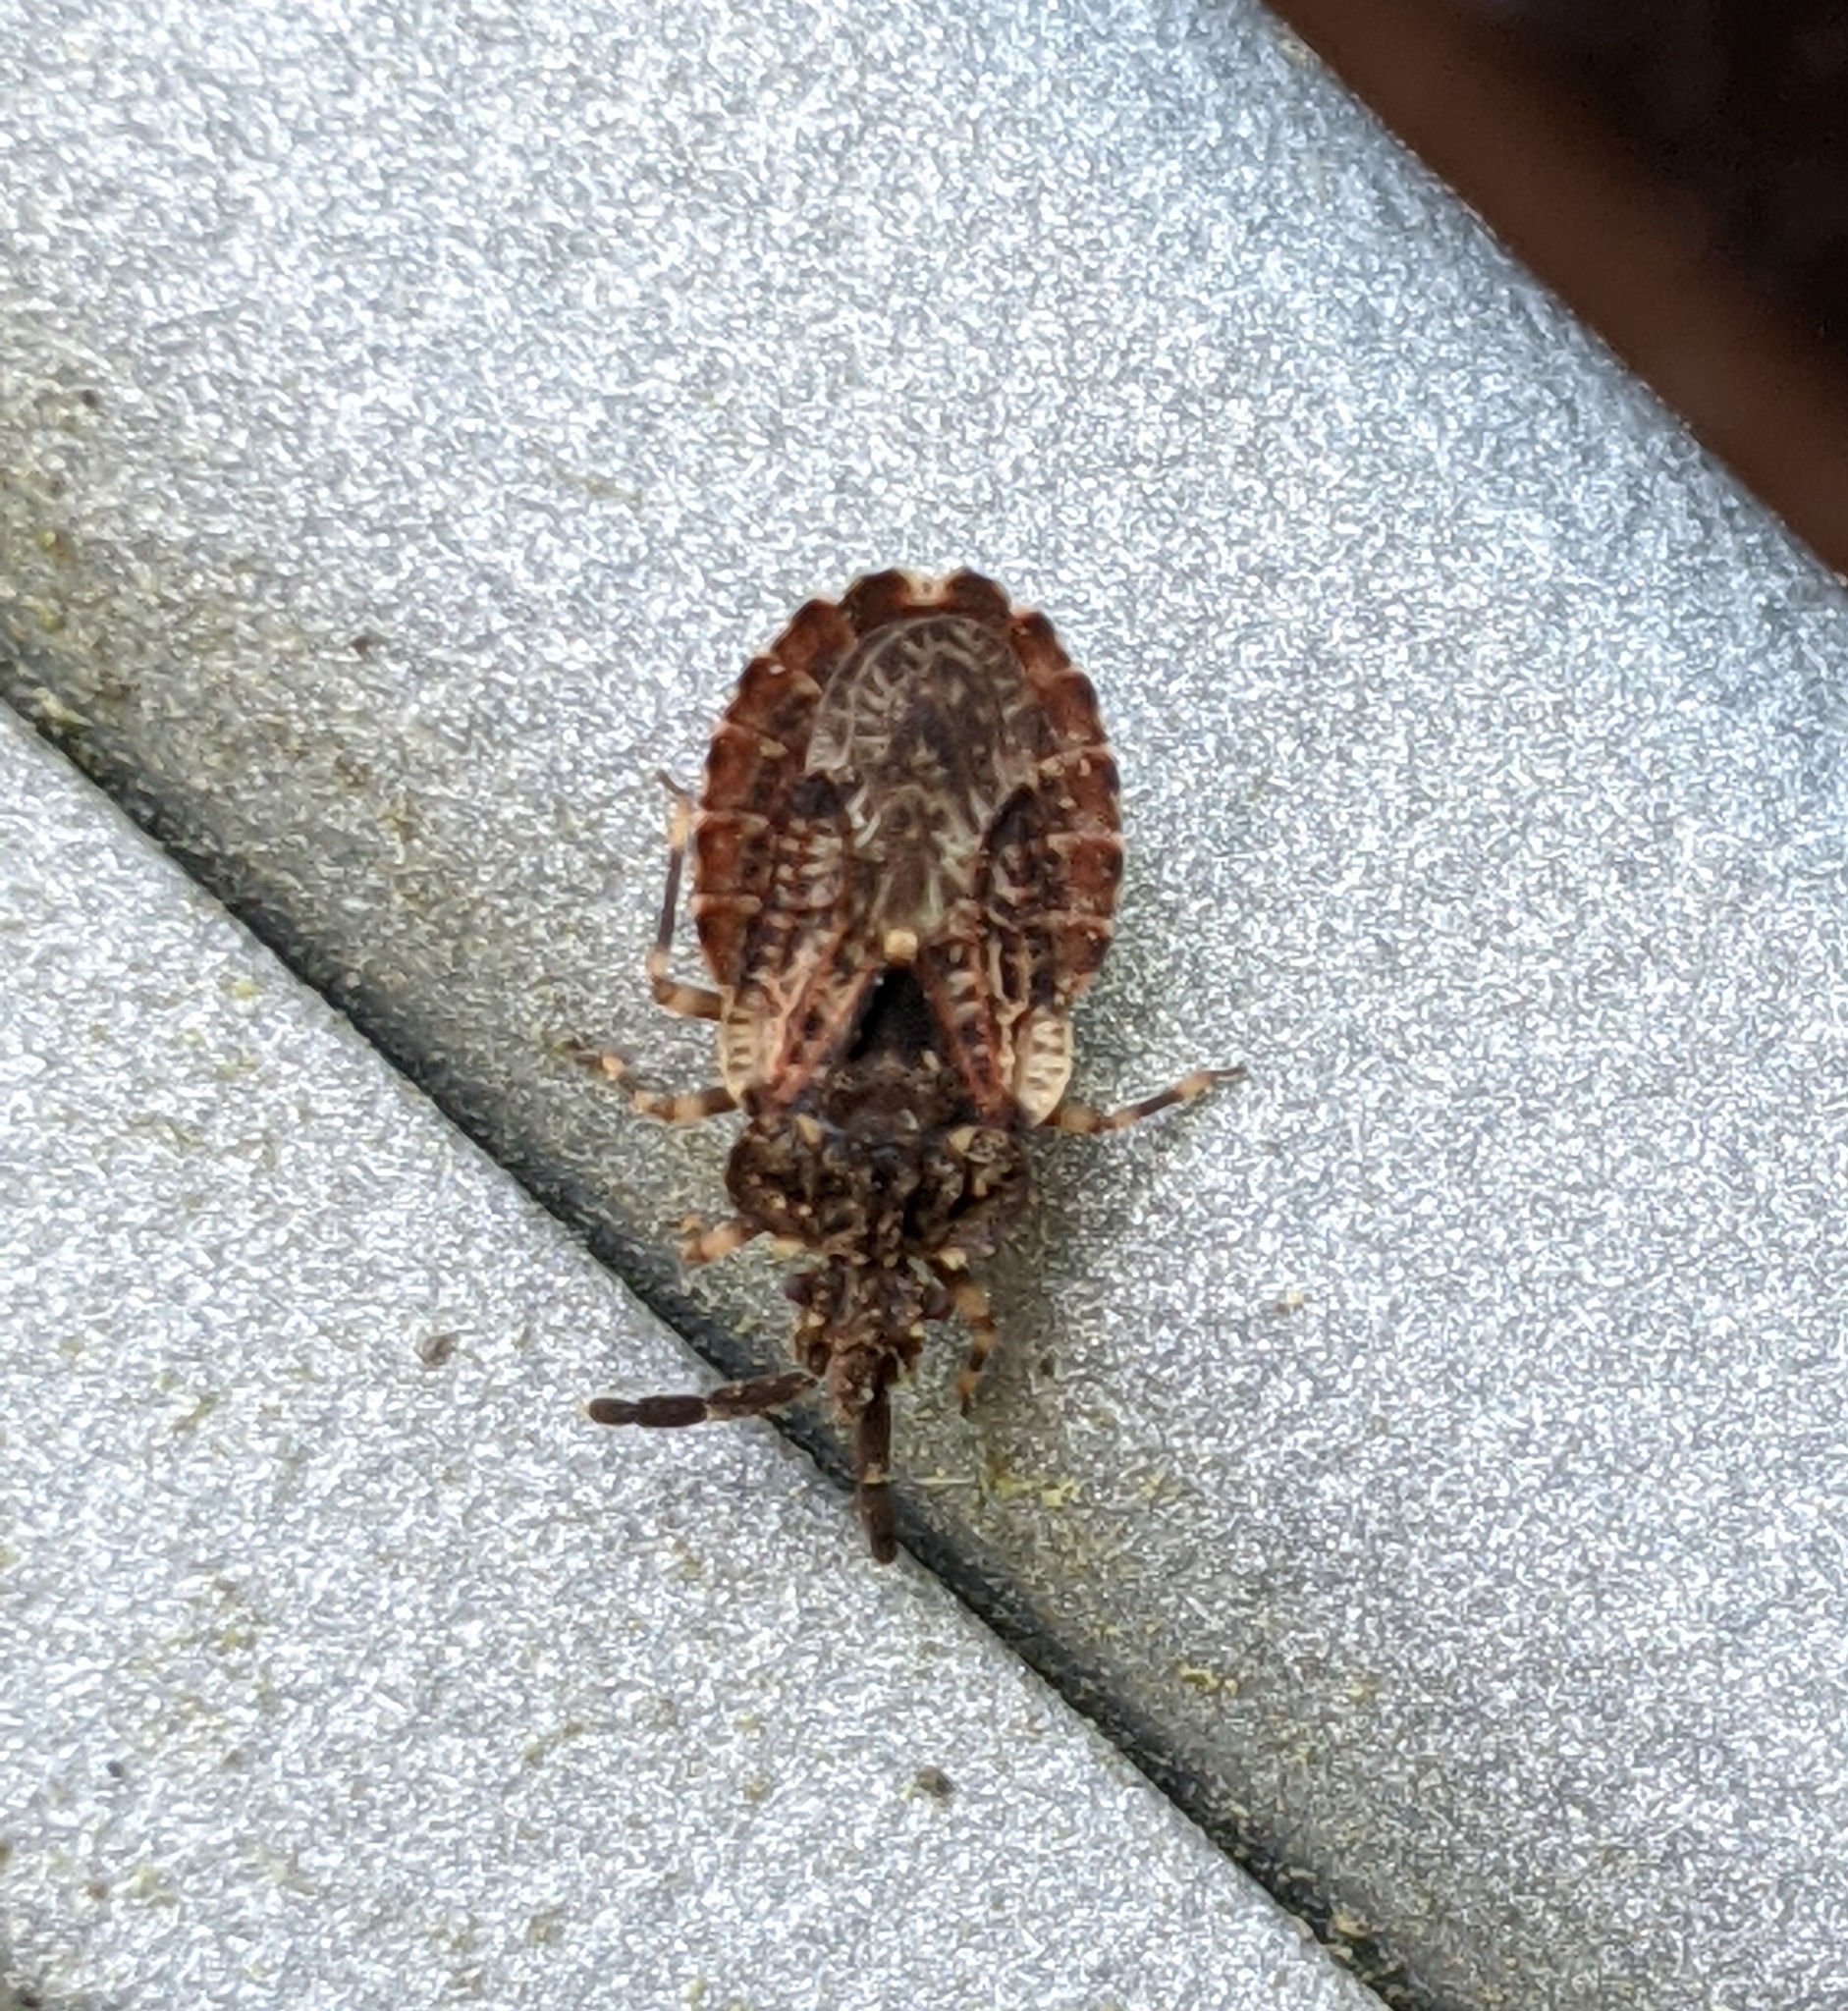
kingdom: Animalia
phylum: Arthropoda
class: Insecta
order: Hemiptera
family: Aradidae
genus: Aradus
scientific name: Aradus fuscomaculatus
